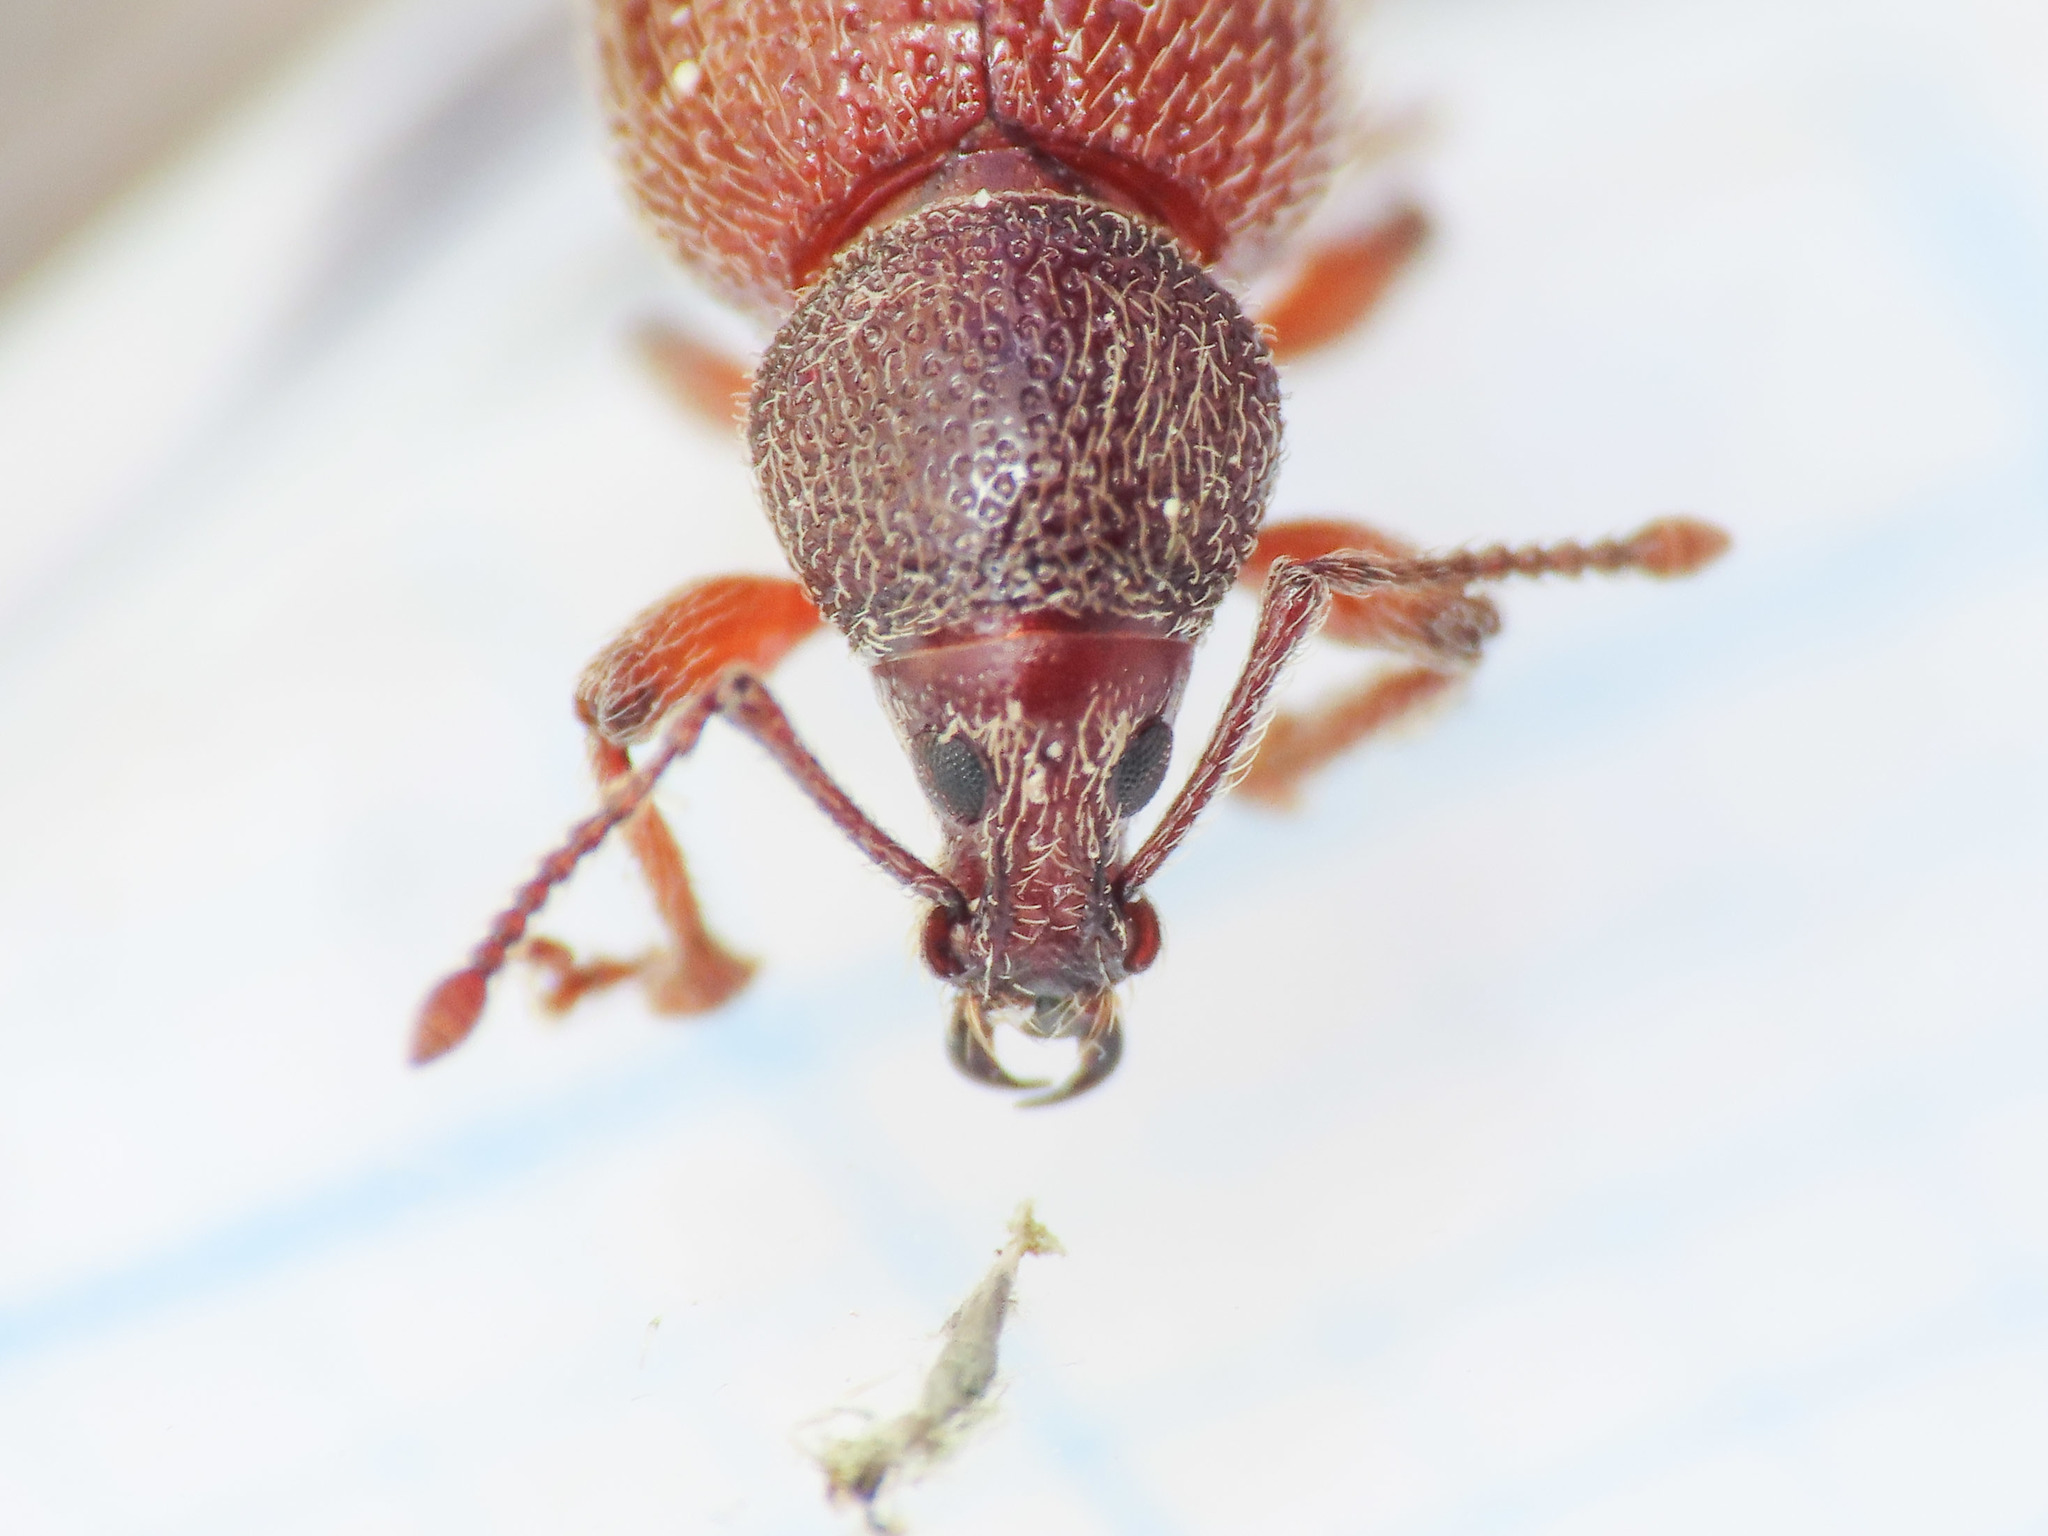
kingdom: Animalia
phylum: Arthropoda
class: Insecta
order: Coleoptera
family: Curculionidae
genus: Otiorhynchus
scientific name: Otiorhynchus indefinitus
